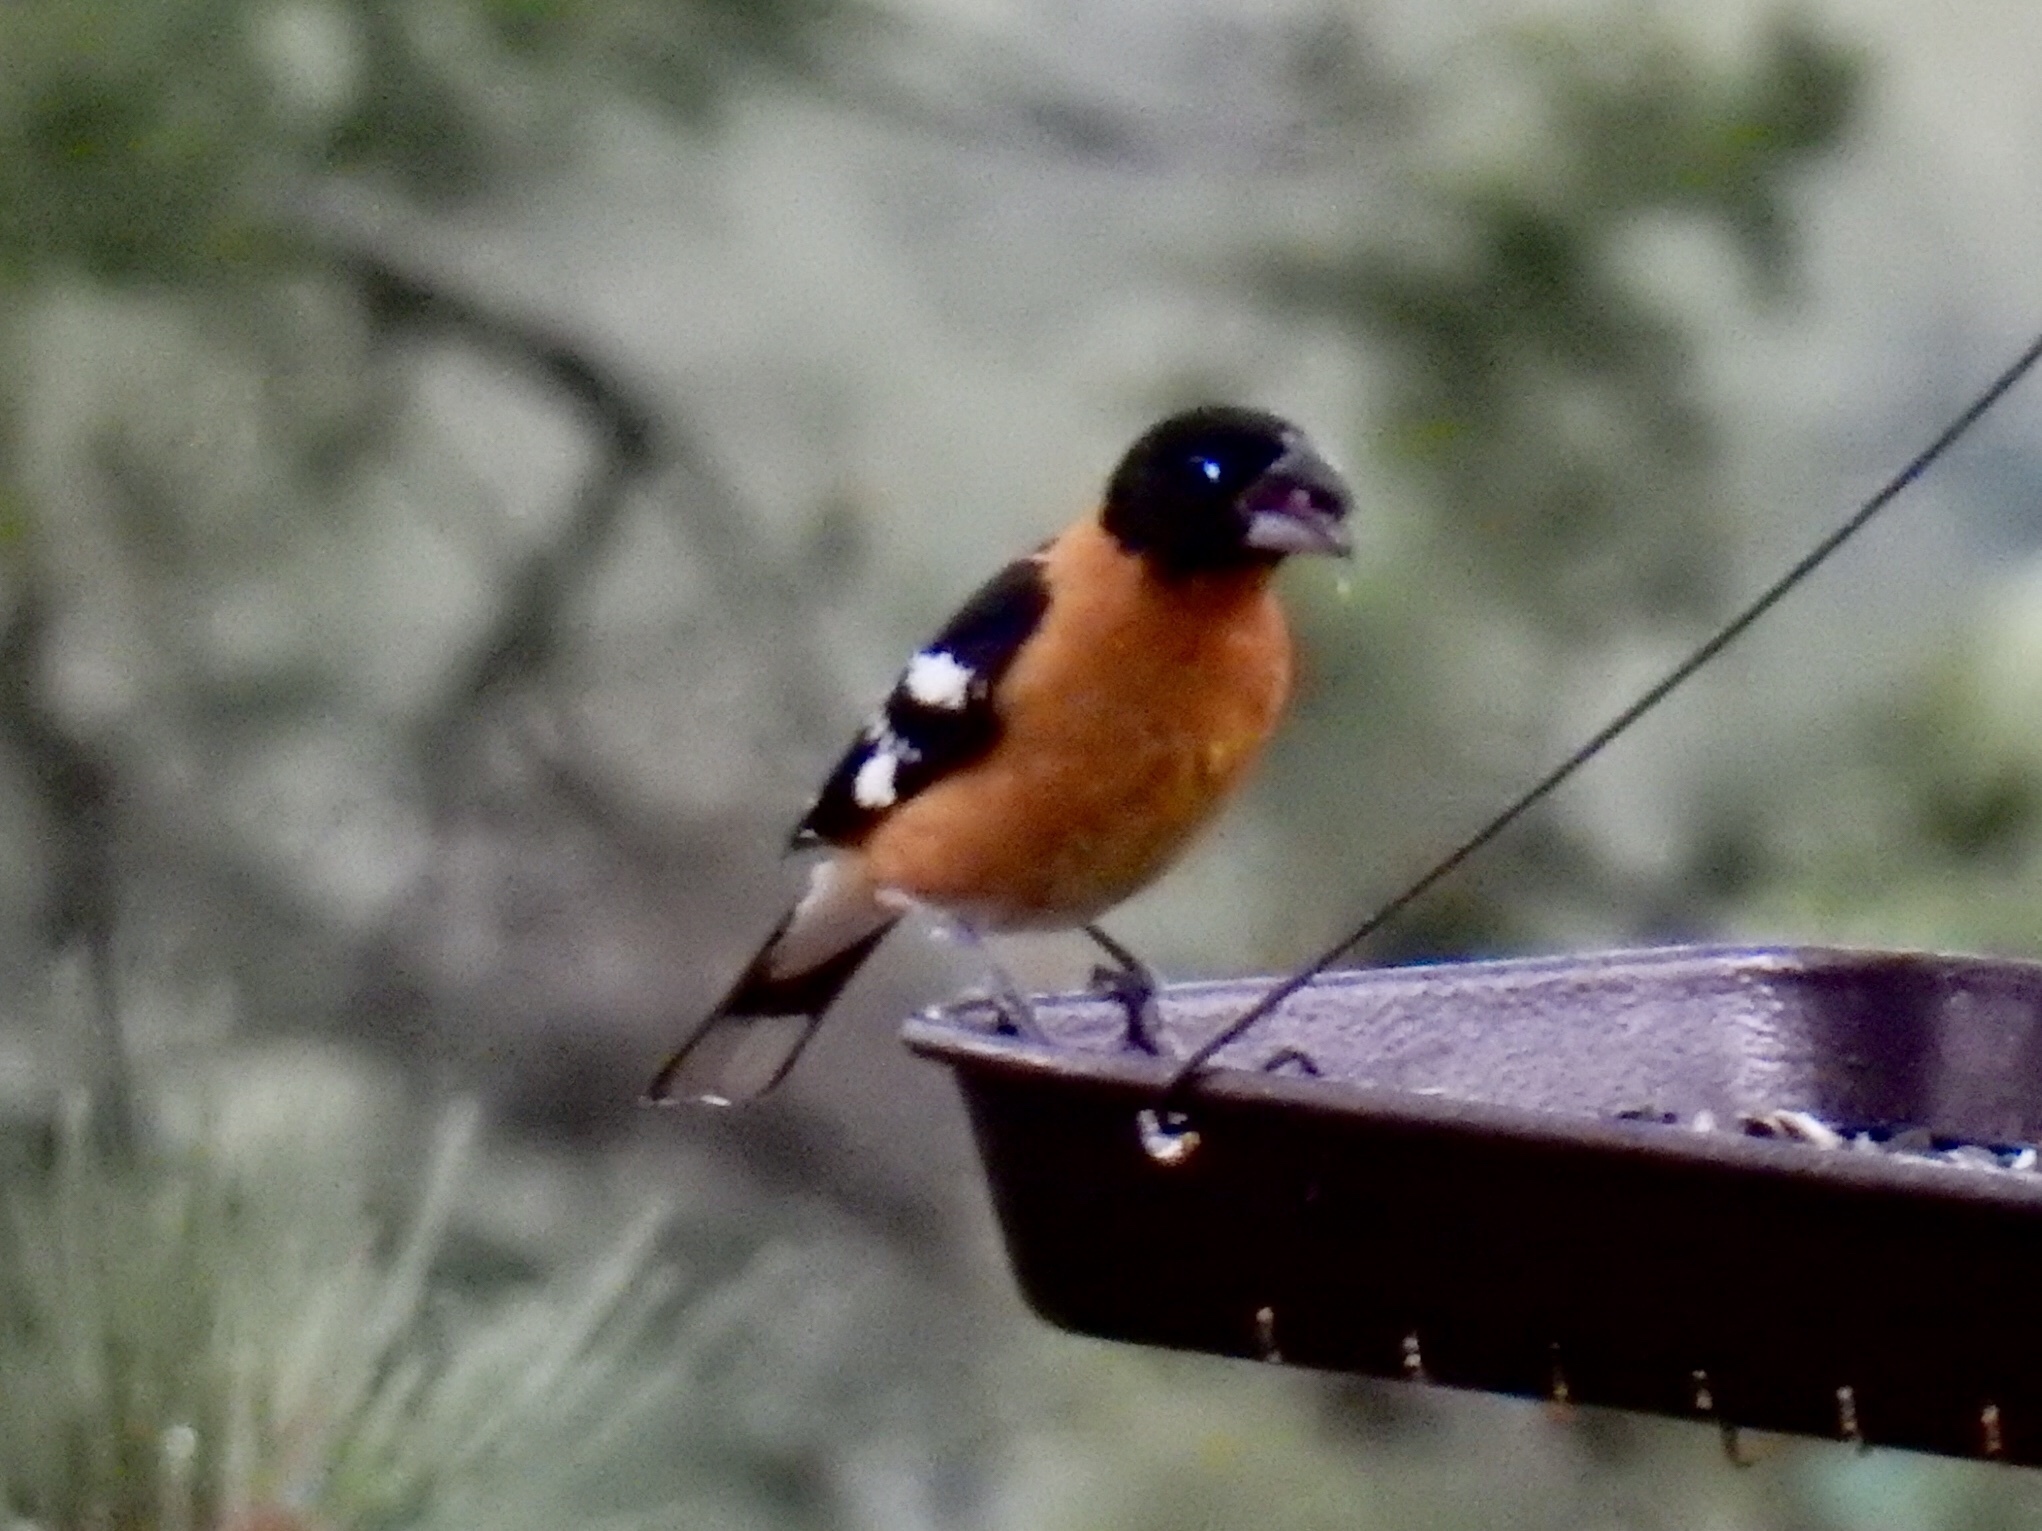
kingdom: Animalia
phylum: Chordata
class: Aves
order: Passeriformes
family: Cardinalidae
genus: Pheucticus
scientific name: Pheucticus melanocephalus
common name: Black-headed grosbeak
